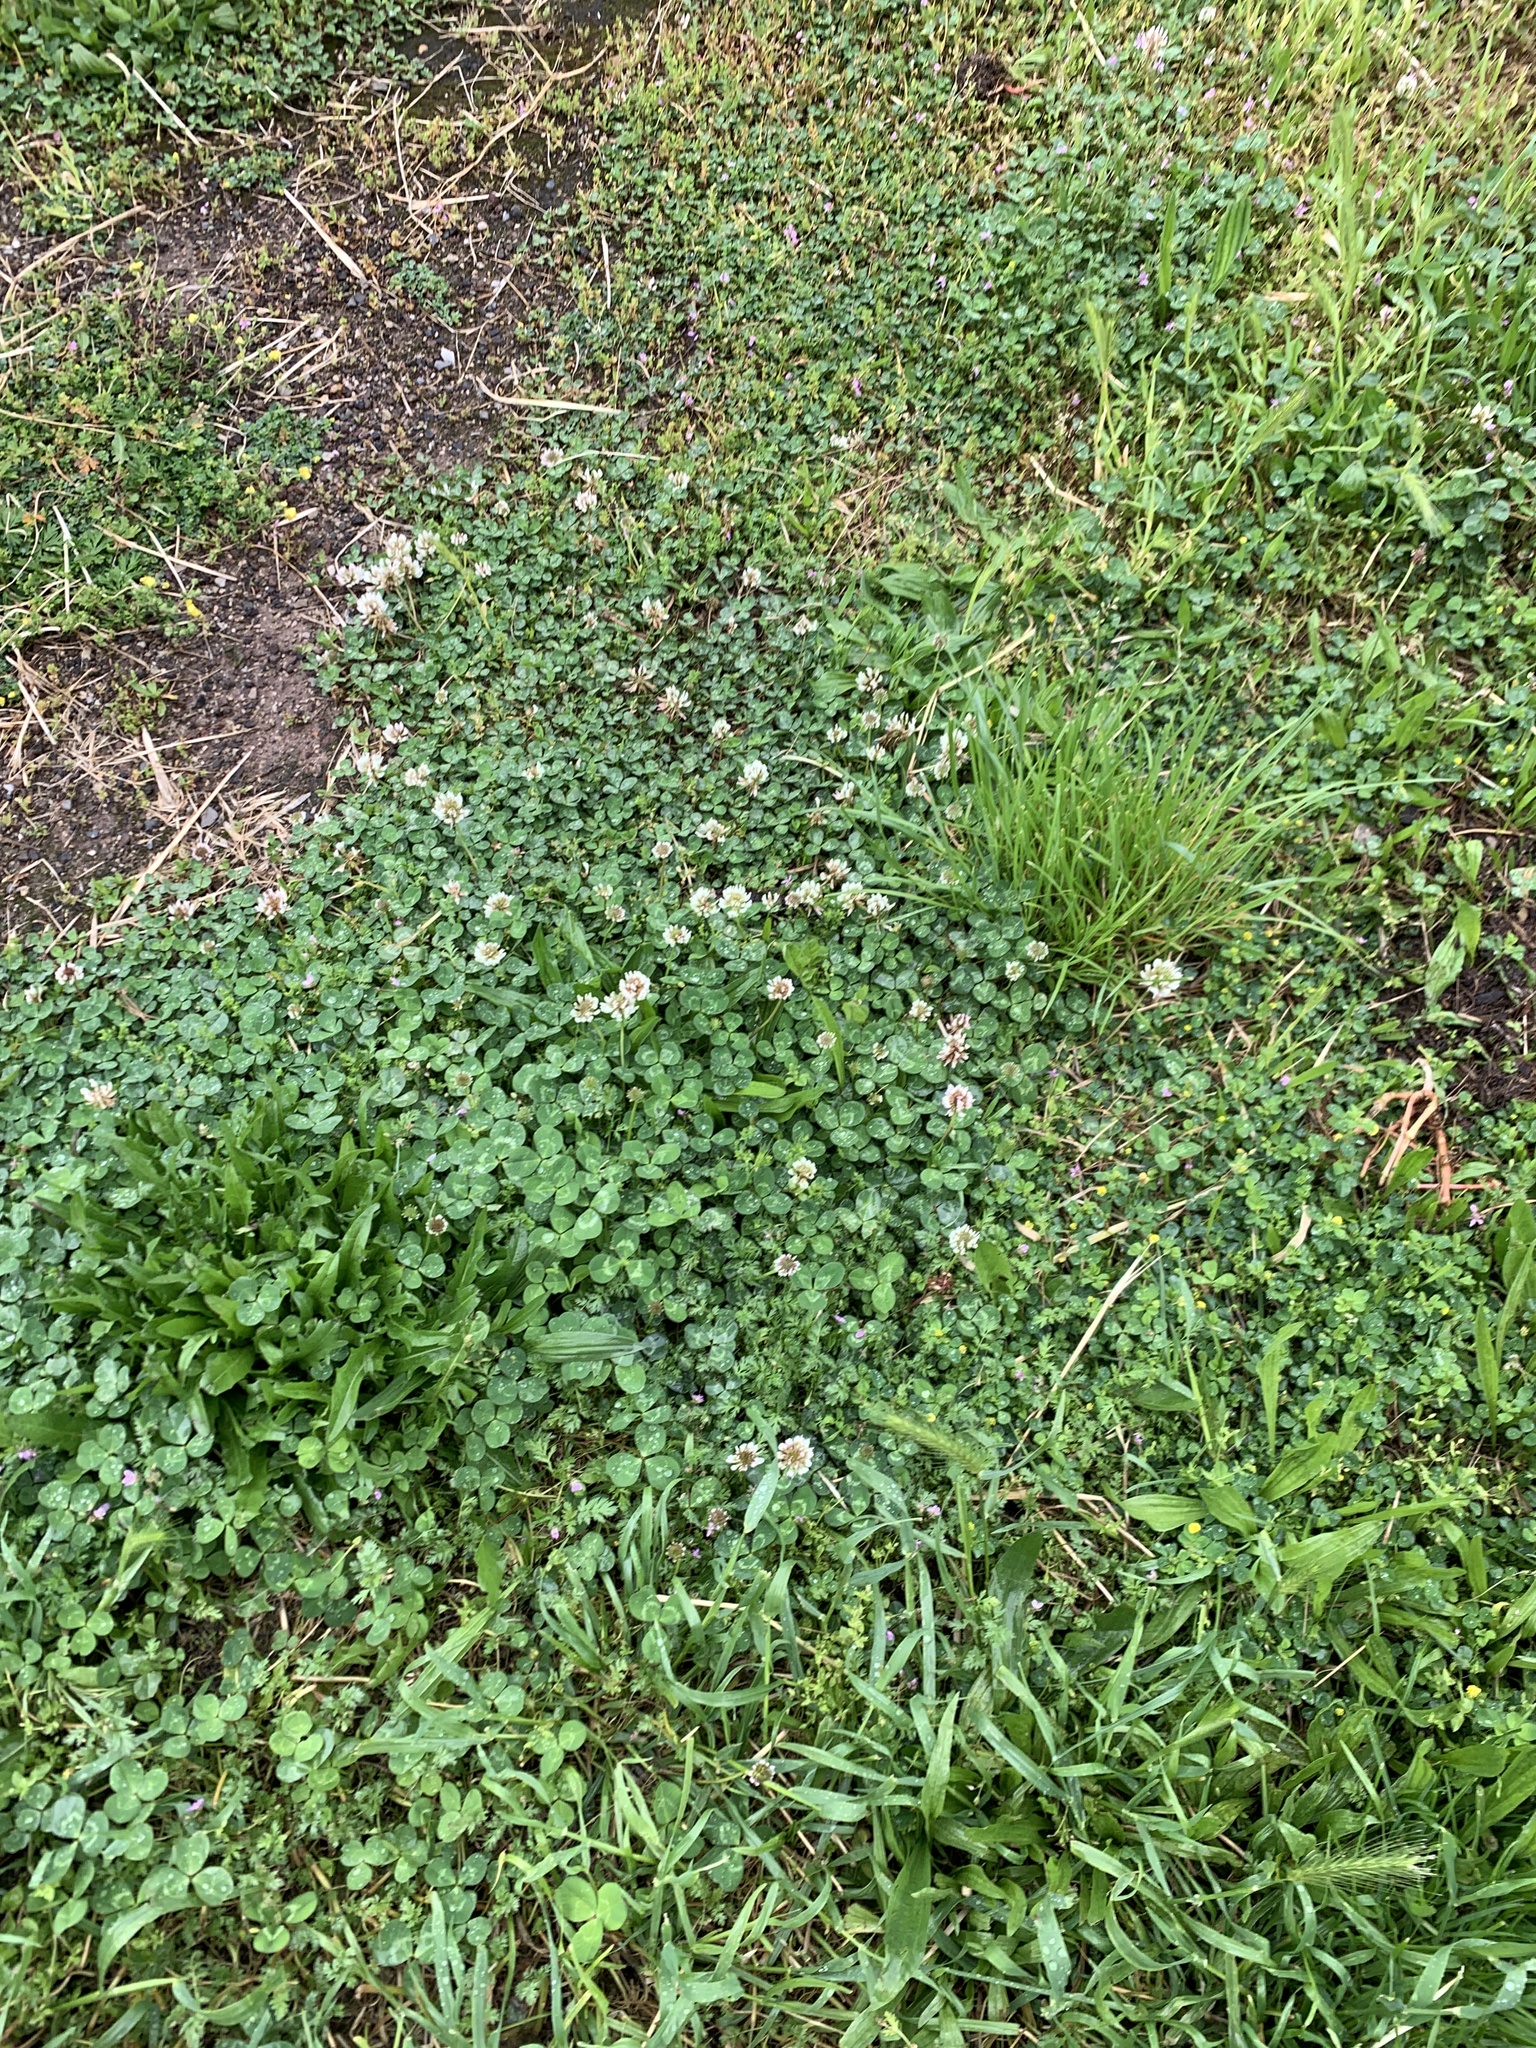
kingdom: Plantae
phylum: Tracheophyta
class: Magnoliopsida
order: Fabales
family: Fabaceae
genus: Trifolium
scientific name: Trifolium repens
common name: White clover
